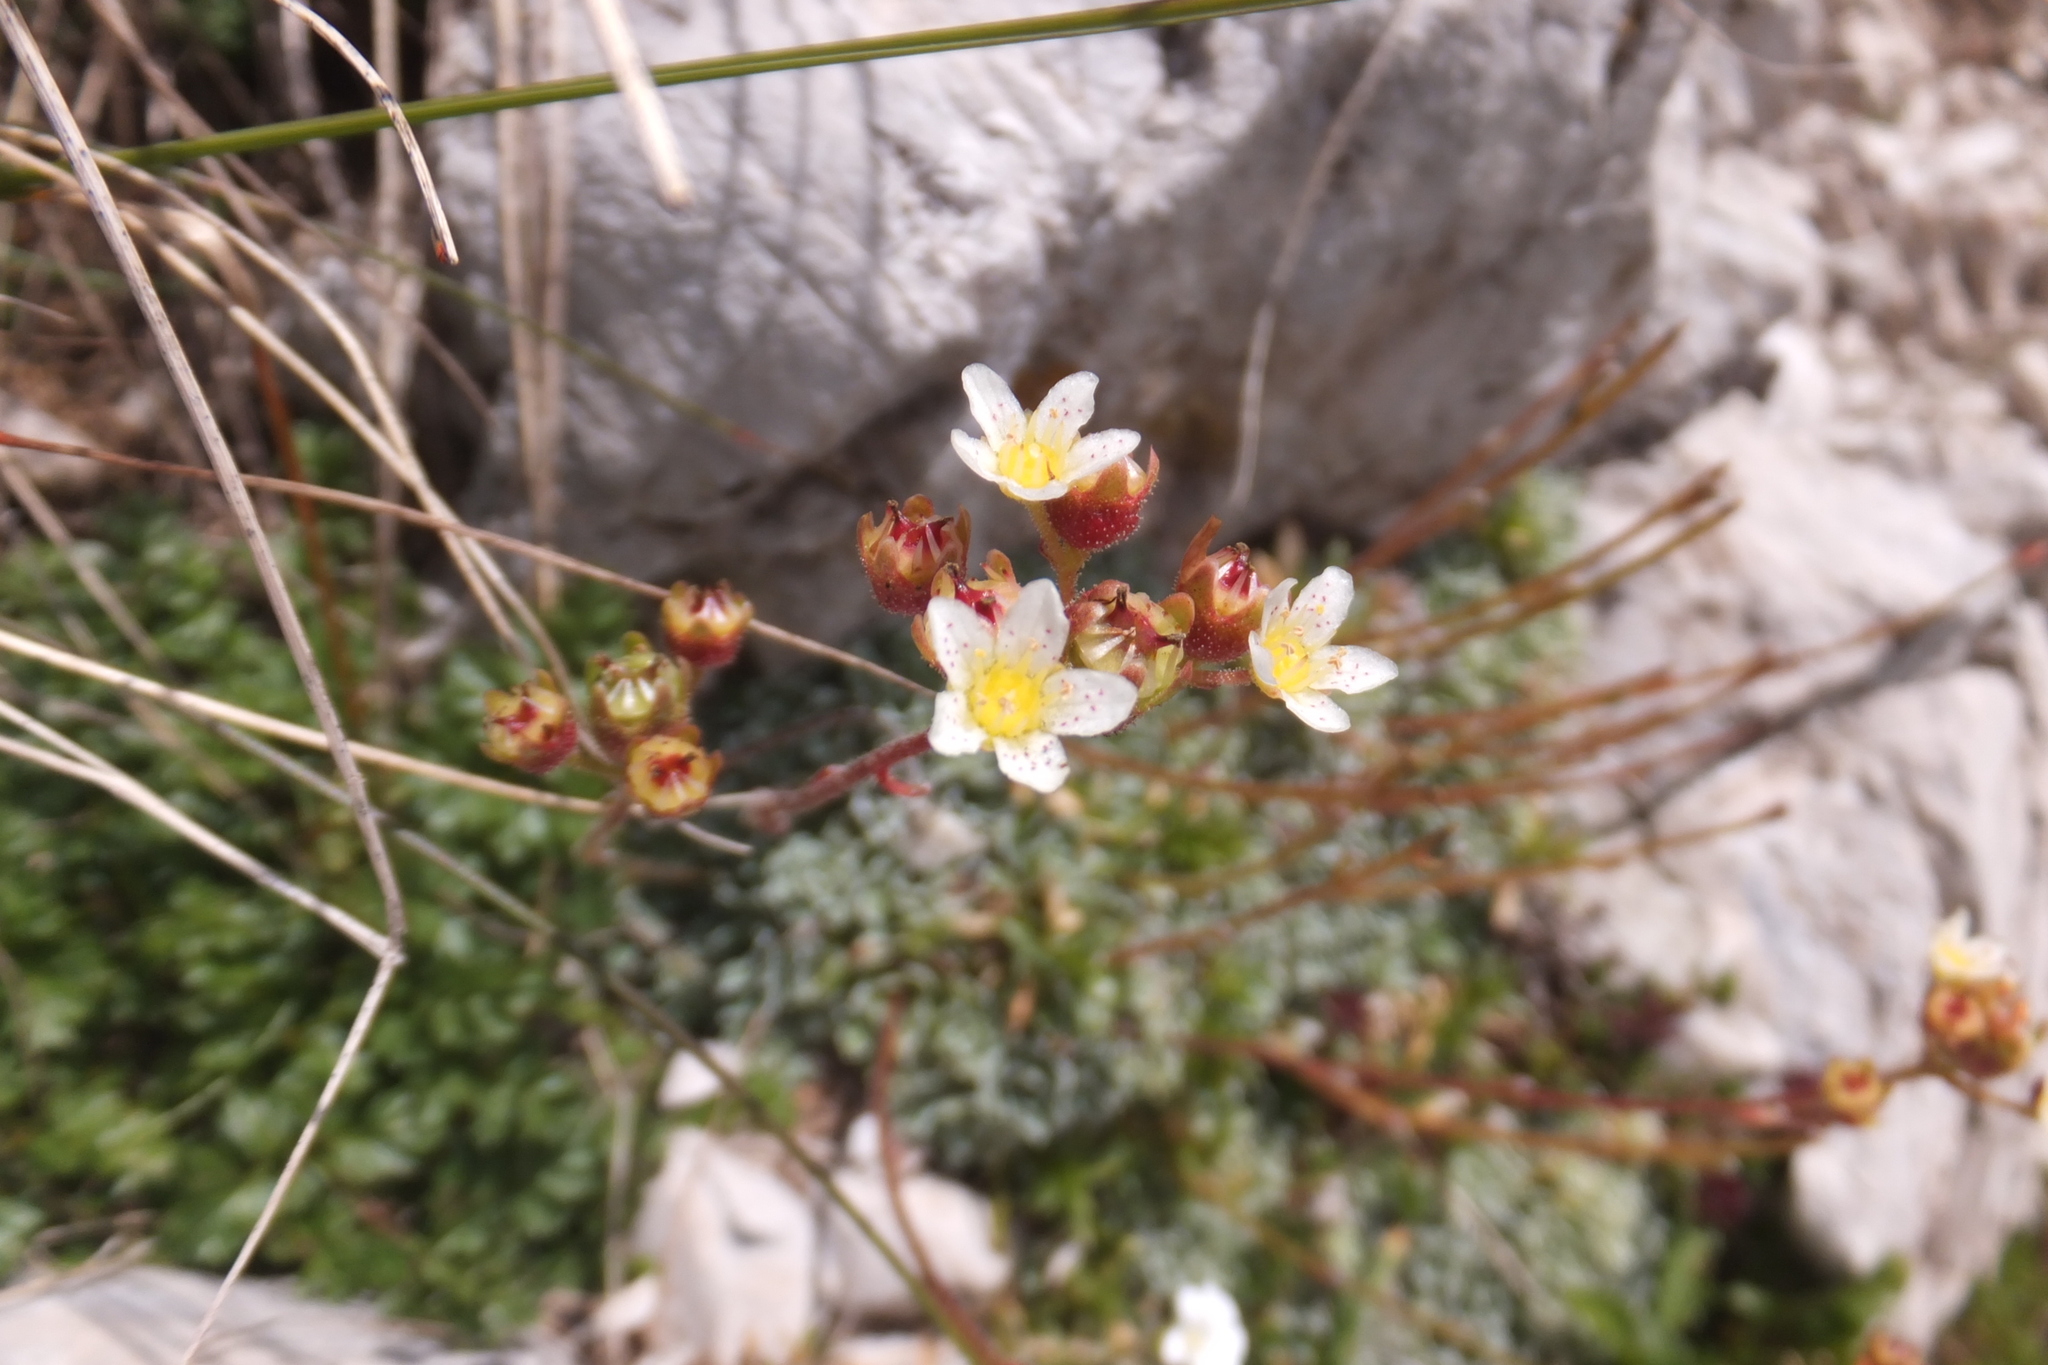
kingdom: Plantae
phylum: Tracheophyta
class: Magnoliopsida
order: Saxifragales
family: Saxifragaceae
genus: Saxifraga
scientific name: Saxifraga paniculata
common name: Livelong saxifrage
